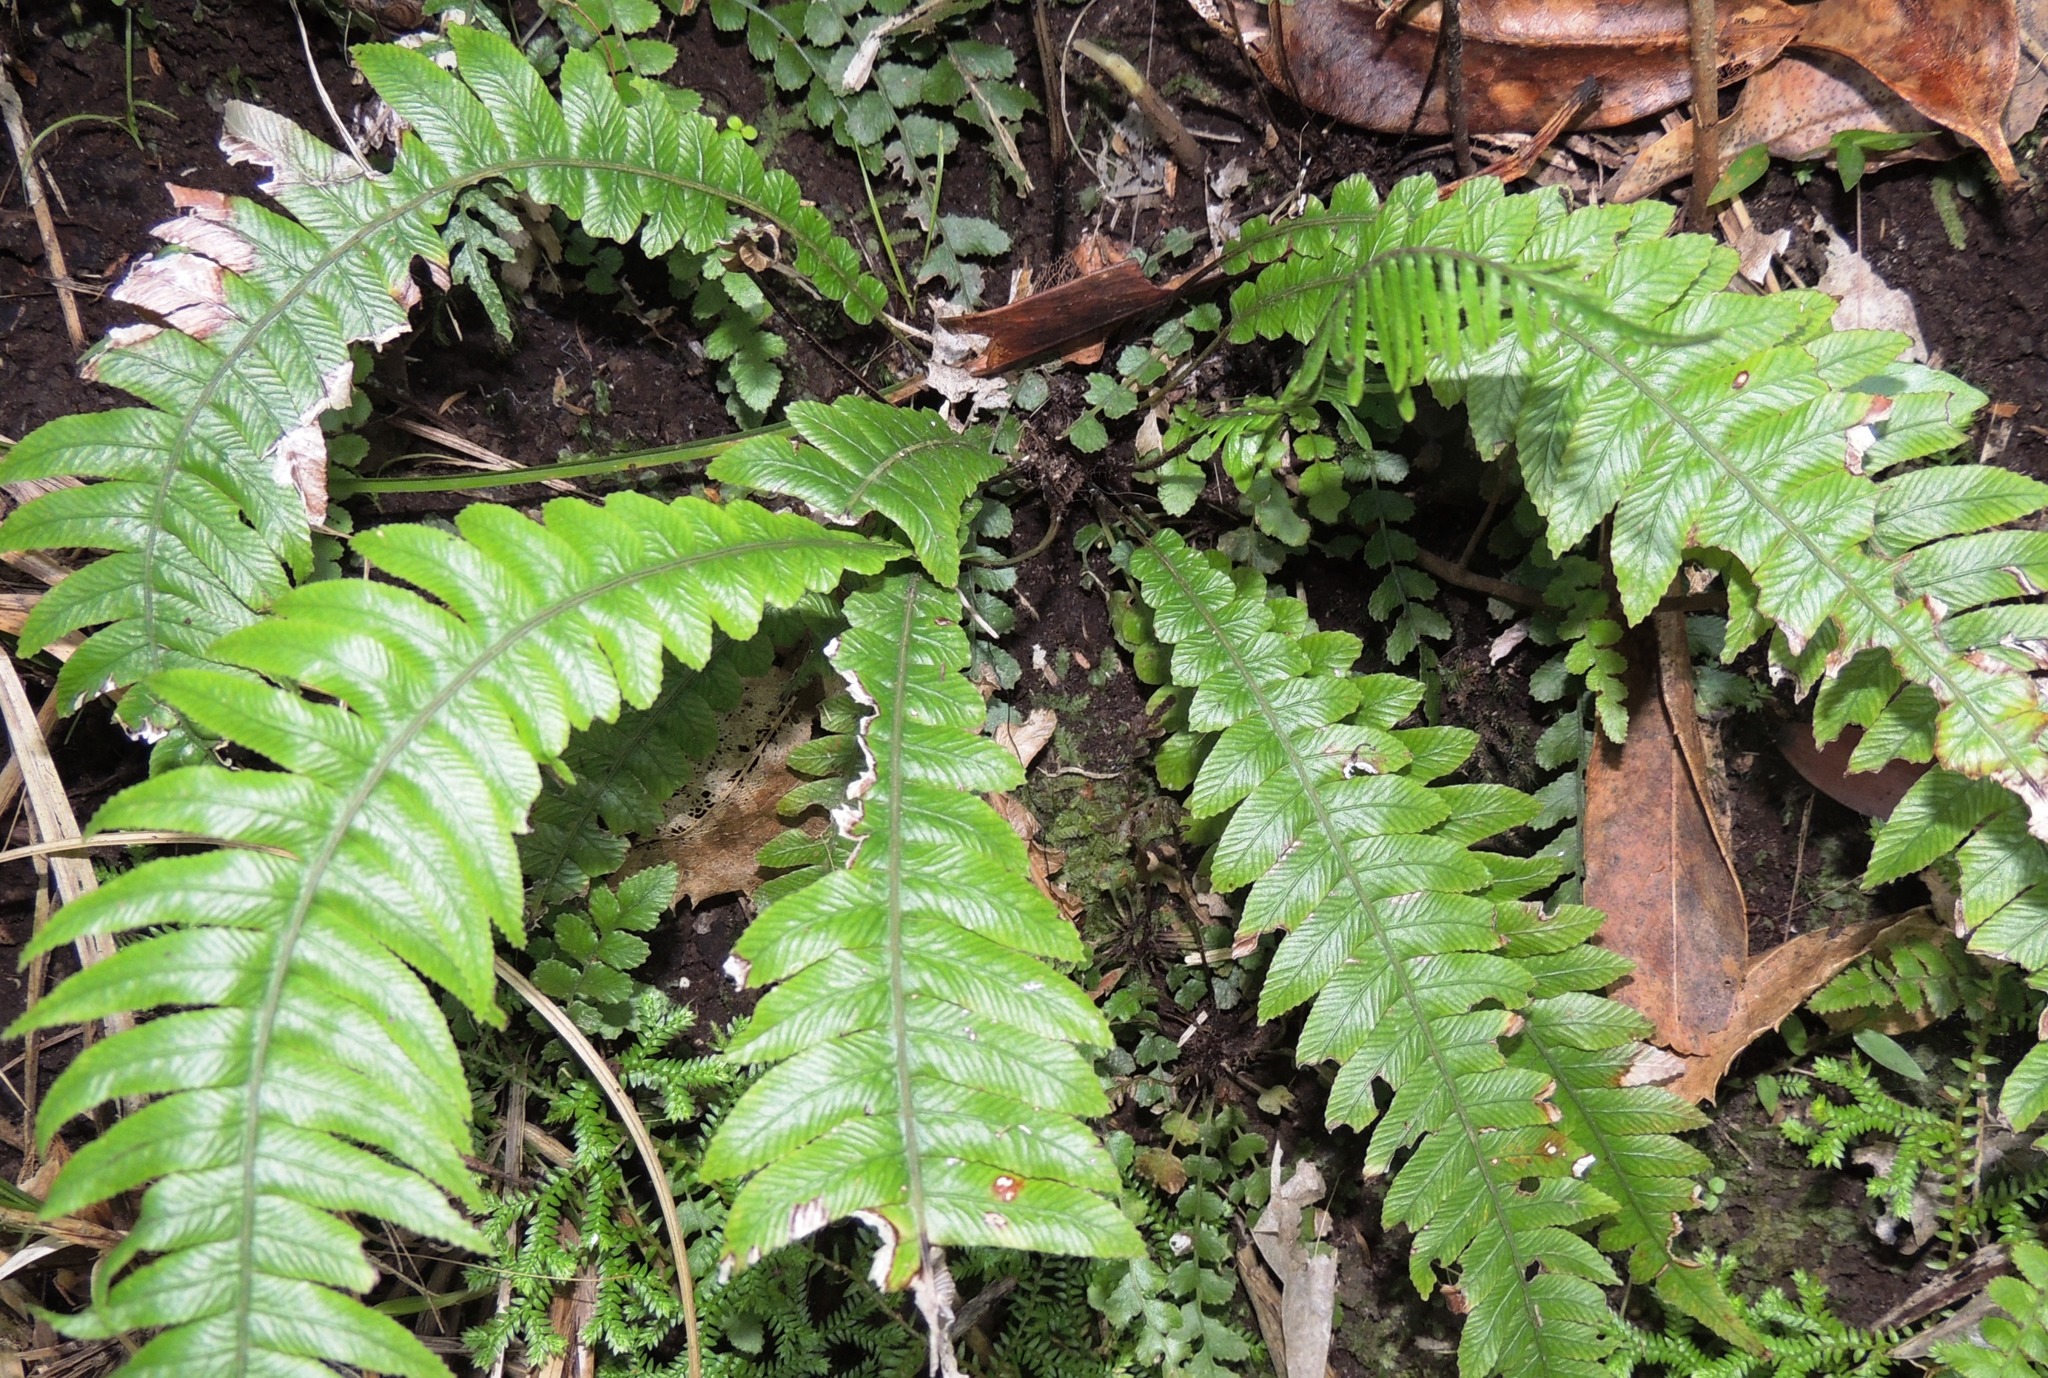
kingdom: Plantae
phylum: Tracheophyta
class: Polypodiopsida
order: Polypodiales
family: Blechnaceae
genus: Austroblechnum
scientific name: Austroblechnum lanceolatum
